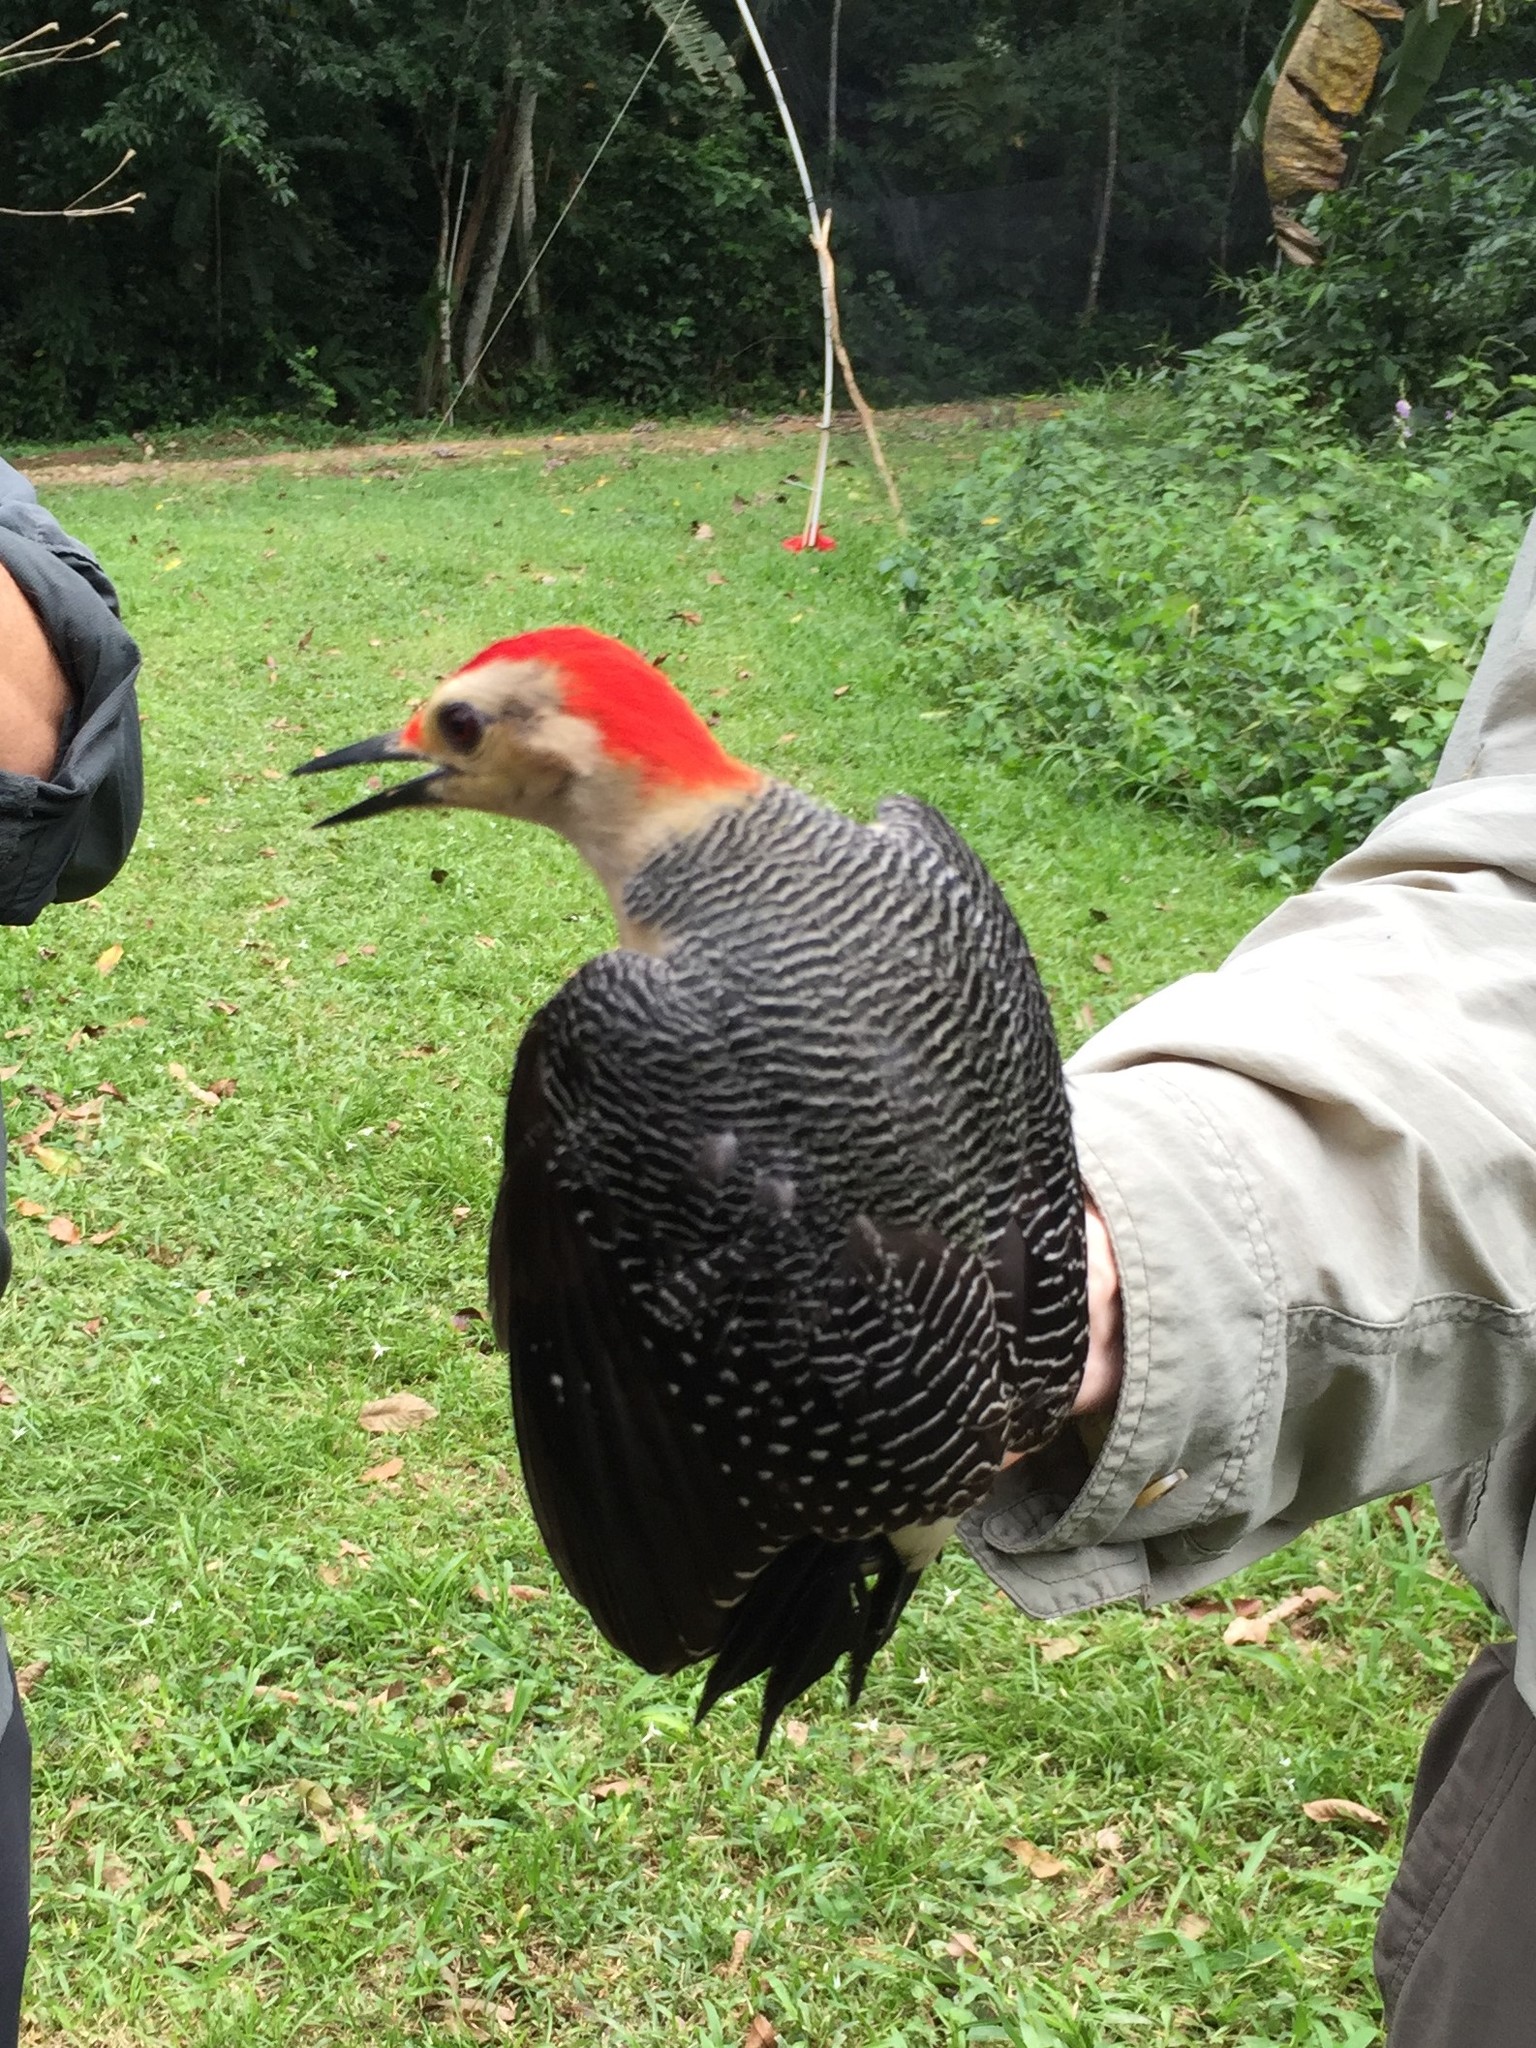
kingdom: Animalia
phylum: Chordata
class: Aves
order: Piciformes
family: Picidae
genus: Melanerpes
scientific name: Melanerpes aurifrons
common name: Golden-fronted woodpecker
